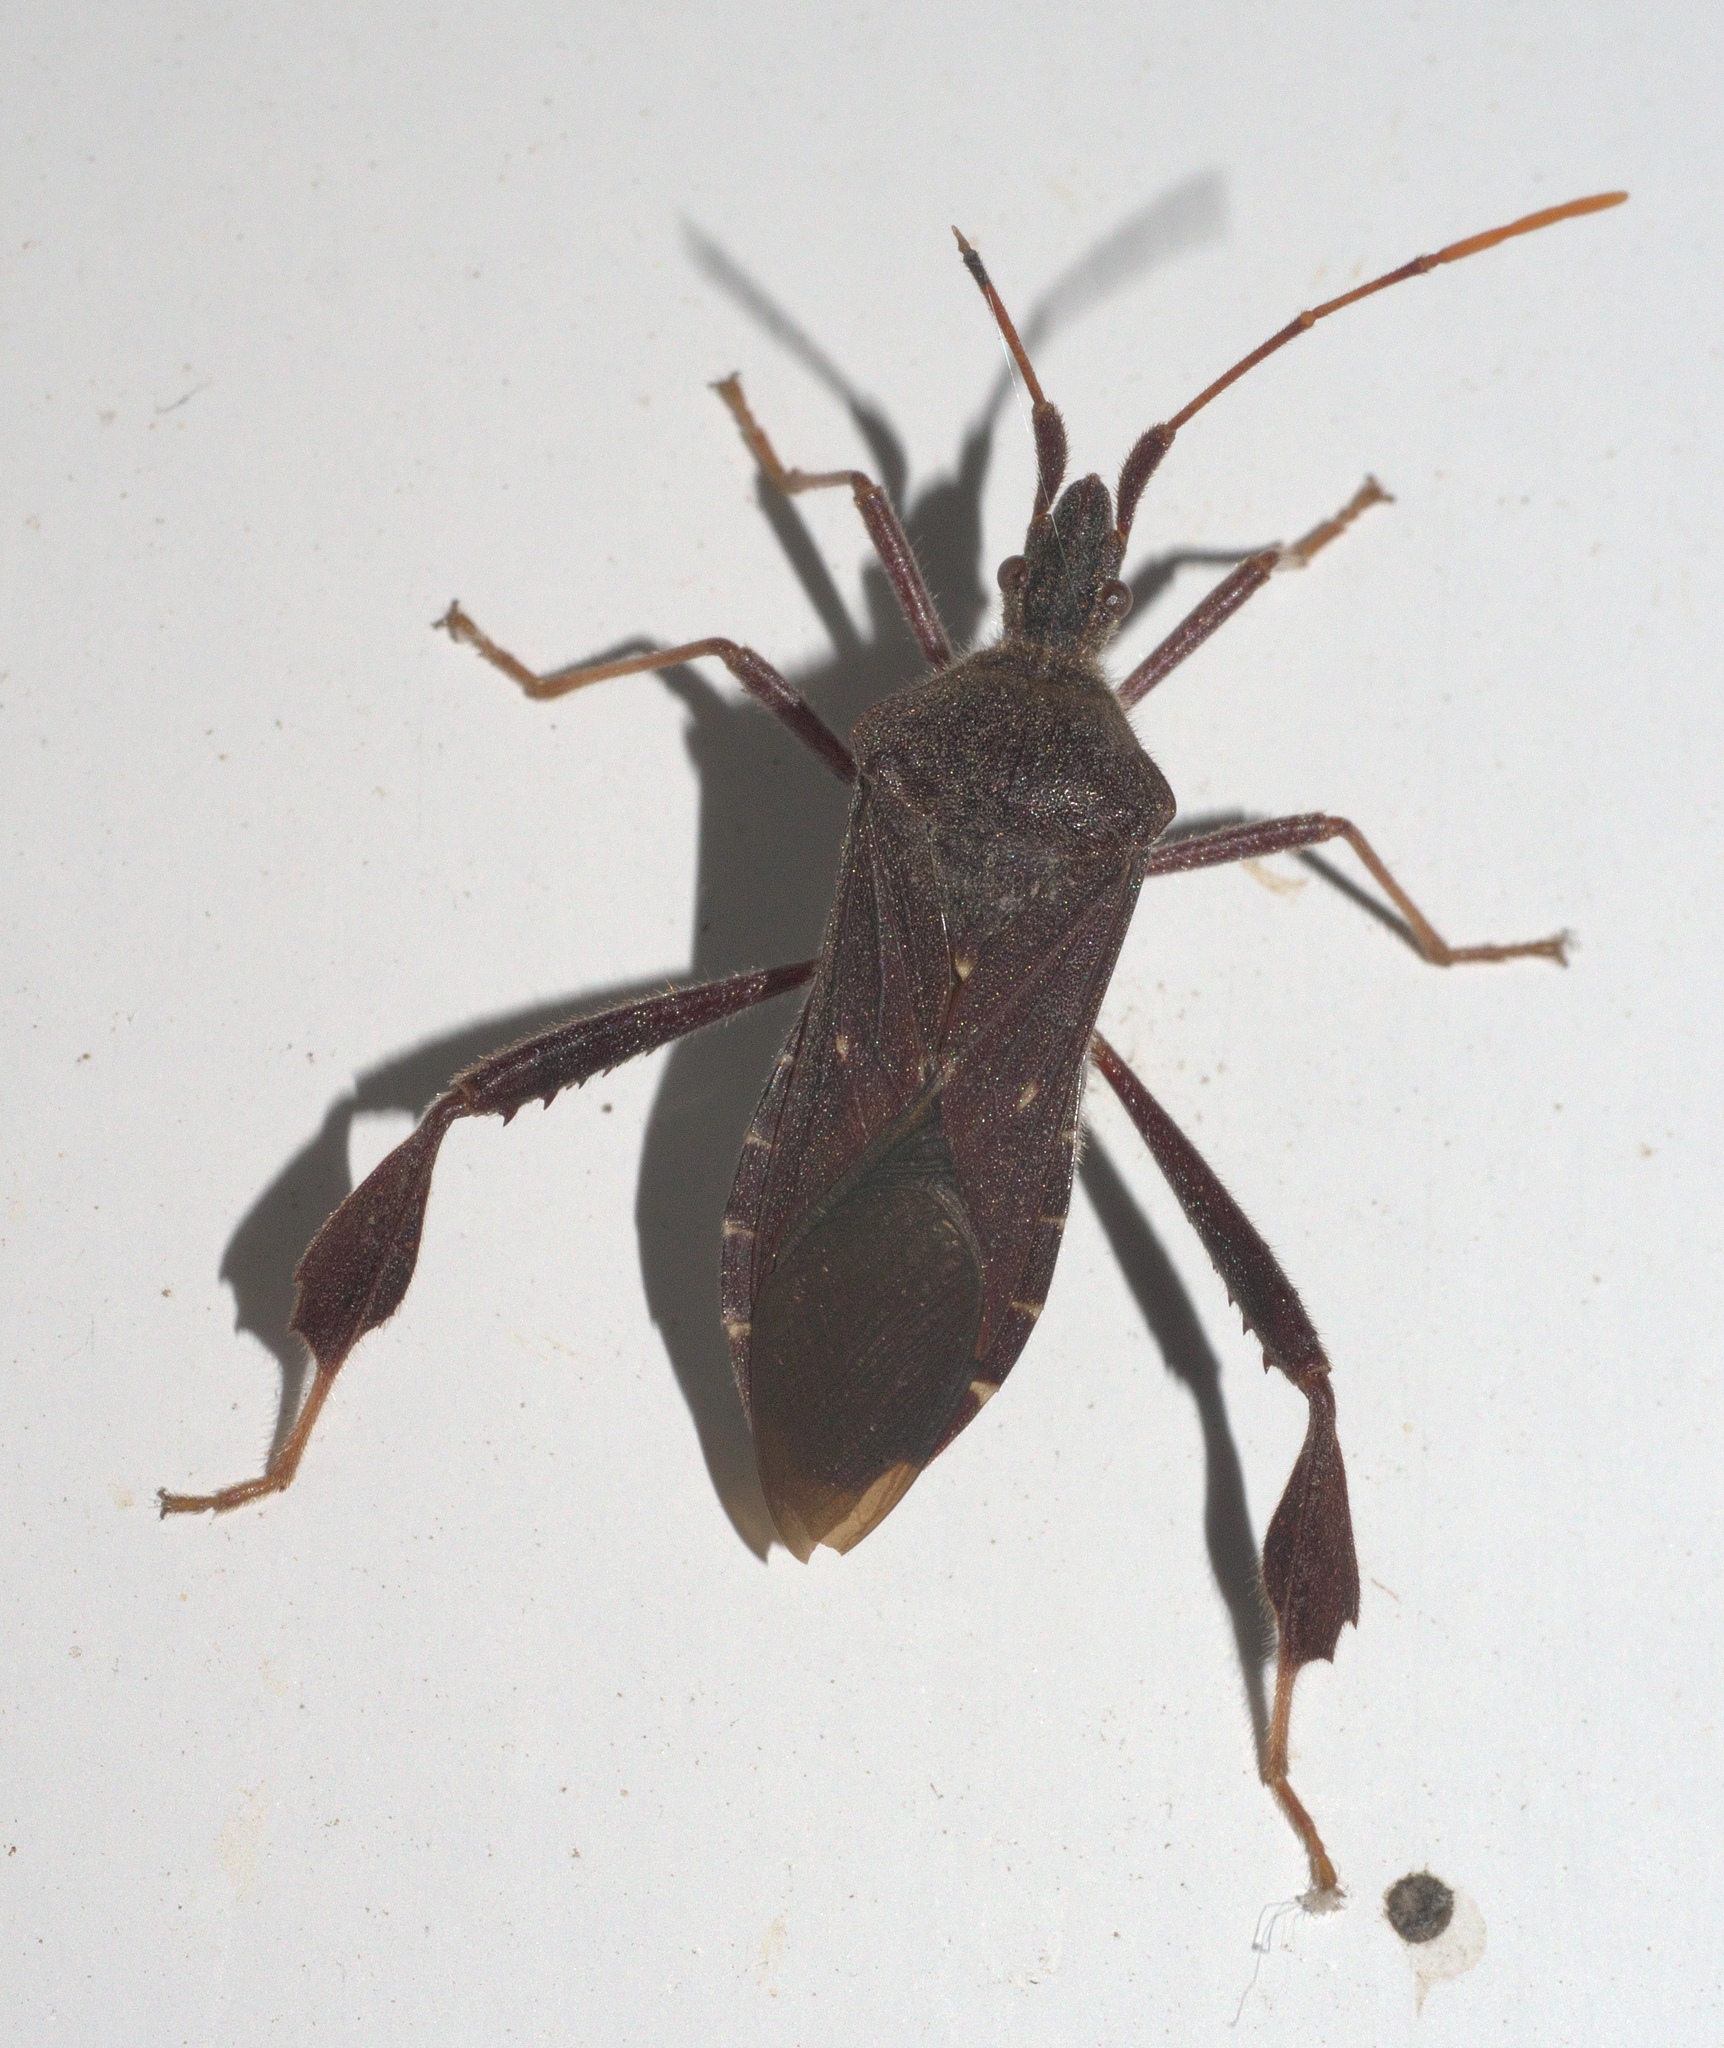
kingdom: Animalia
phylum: Arthropoda
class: Insecta
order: Hemiptera
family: Coreidae
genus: Leptoglossus
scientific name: Leptoglossus oppositus
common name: Northern leaf-footed bug
